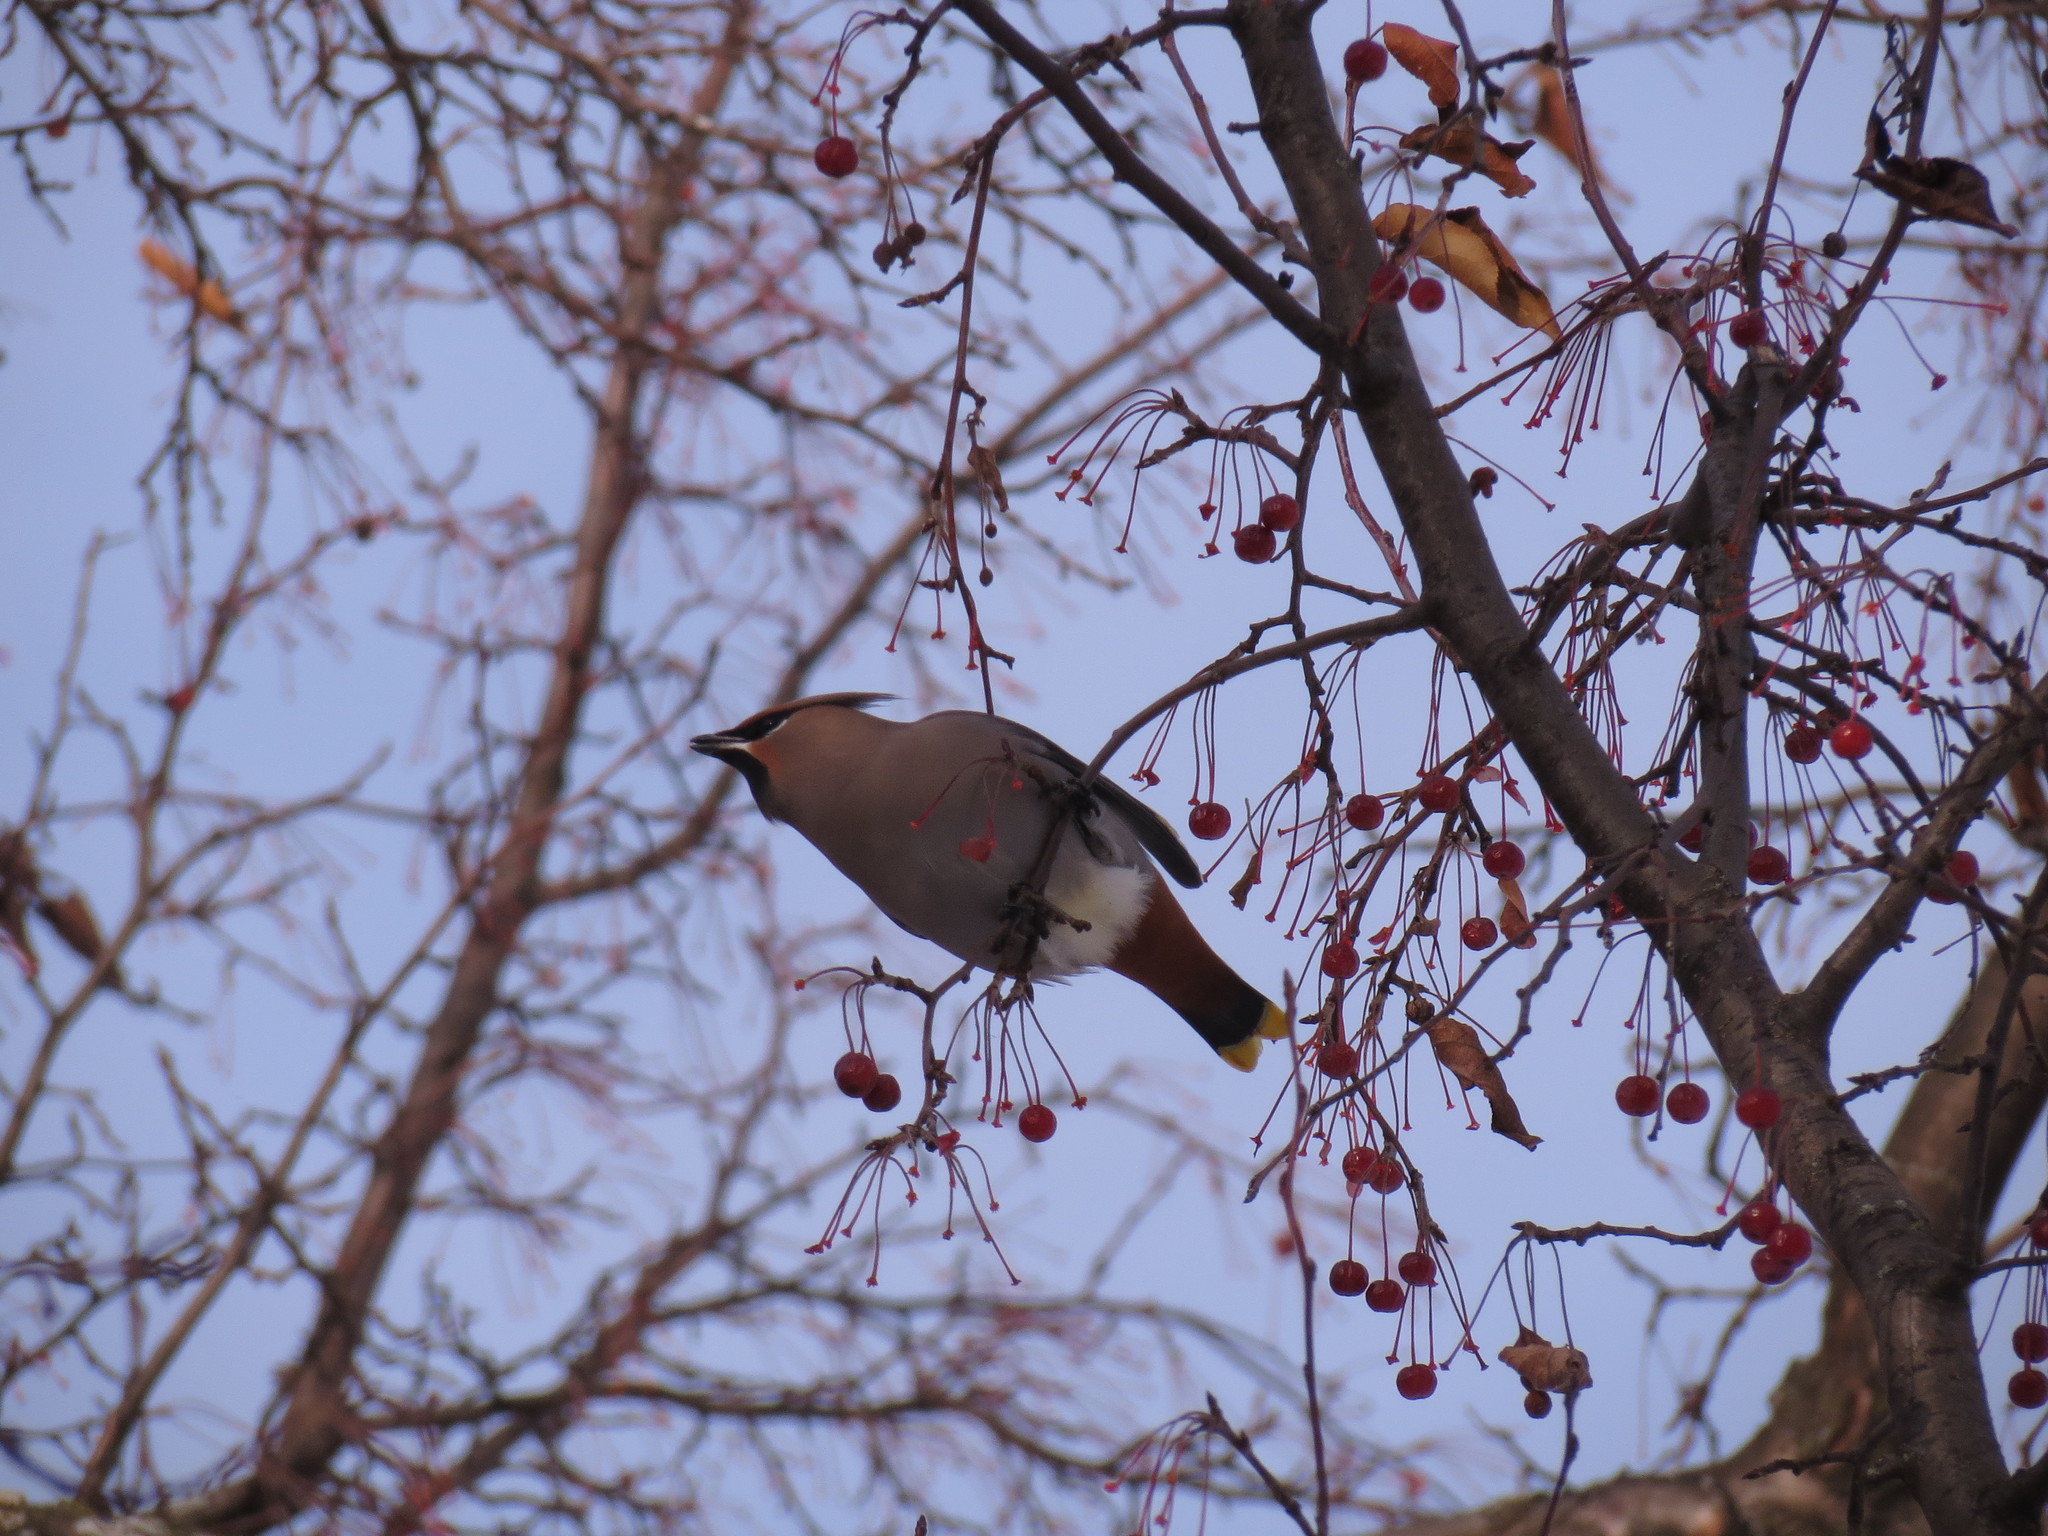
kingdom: Animalia
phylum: Chordata
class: Aves
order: Passeriformes
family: Bombycillidae
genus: Bombycilla
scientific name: Bombycilla garrulus
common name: Bohemian waxwing
